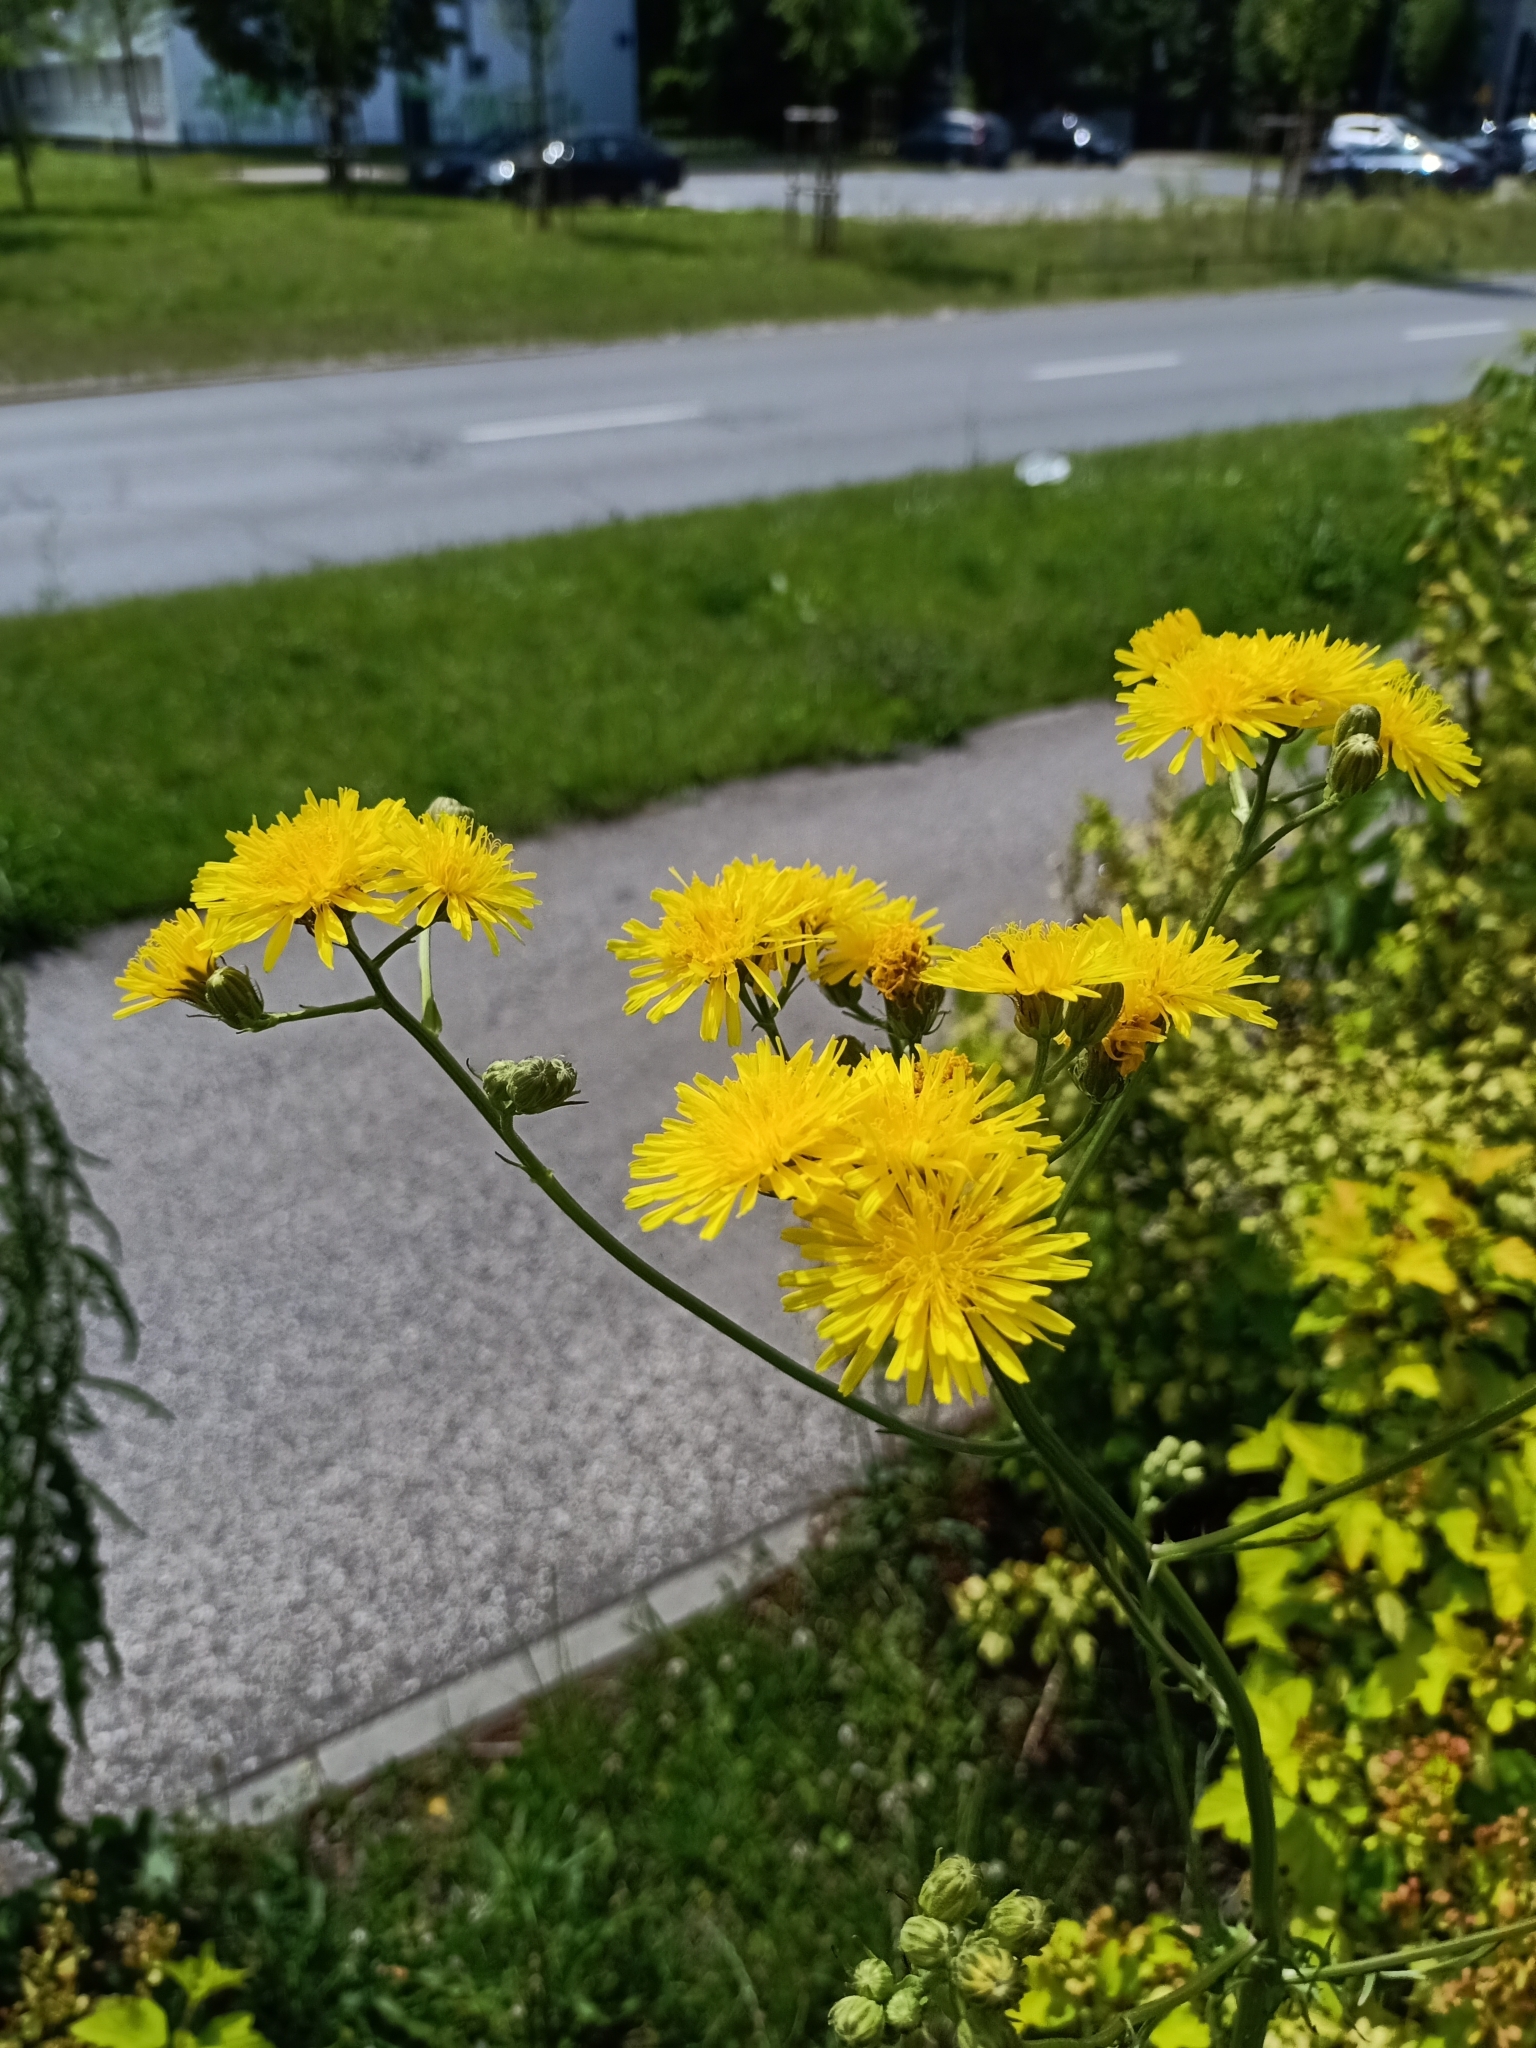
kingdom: Plantae
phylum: Tracheophyta
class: Magnoliopsida
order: Asterales
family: Asteraceae
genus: Crepis
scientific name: Crepis biennis
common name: Rough hawk's-beard
